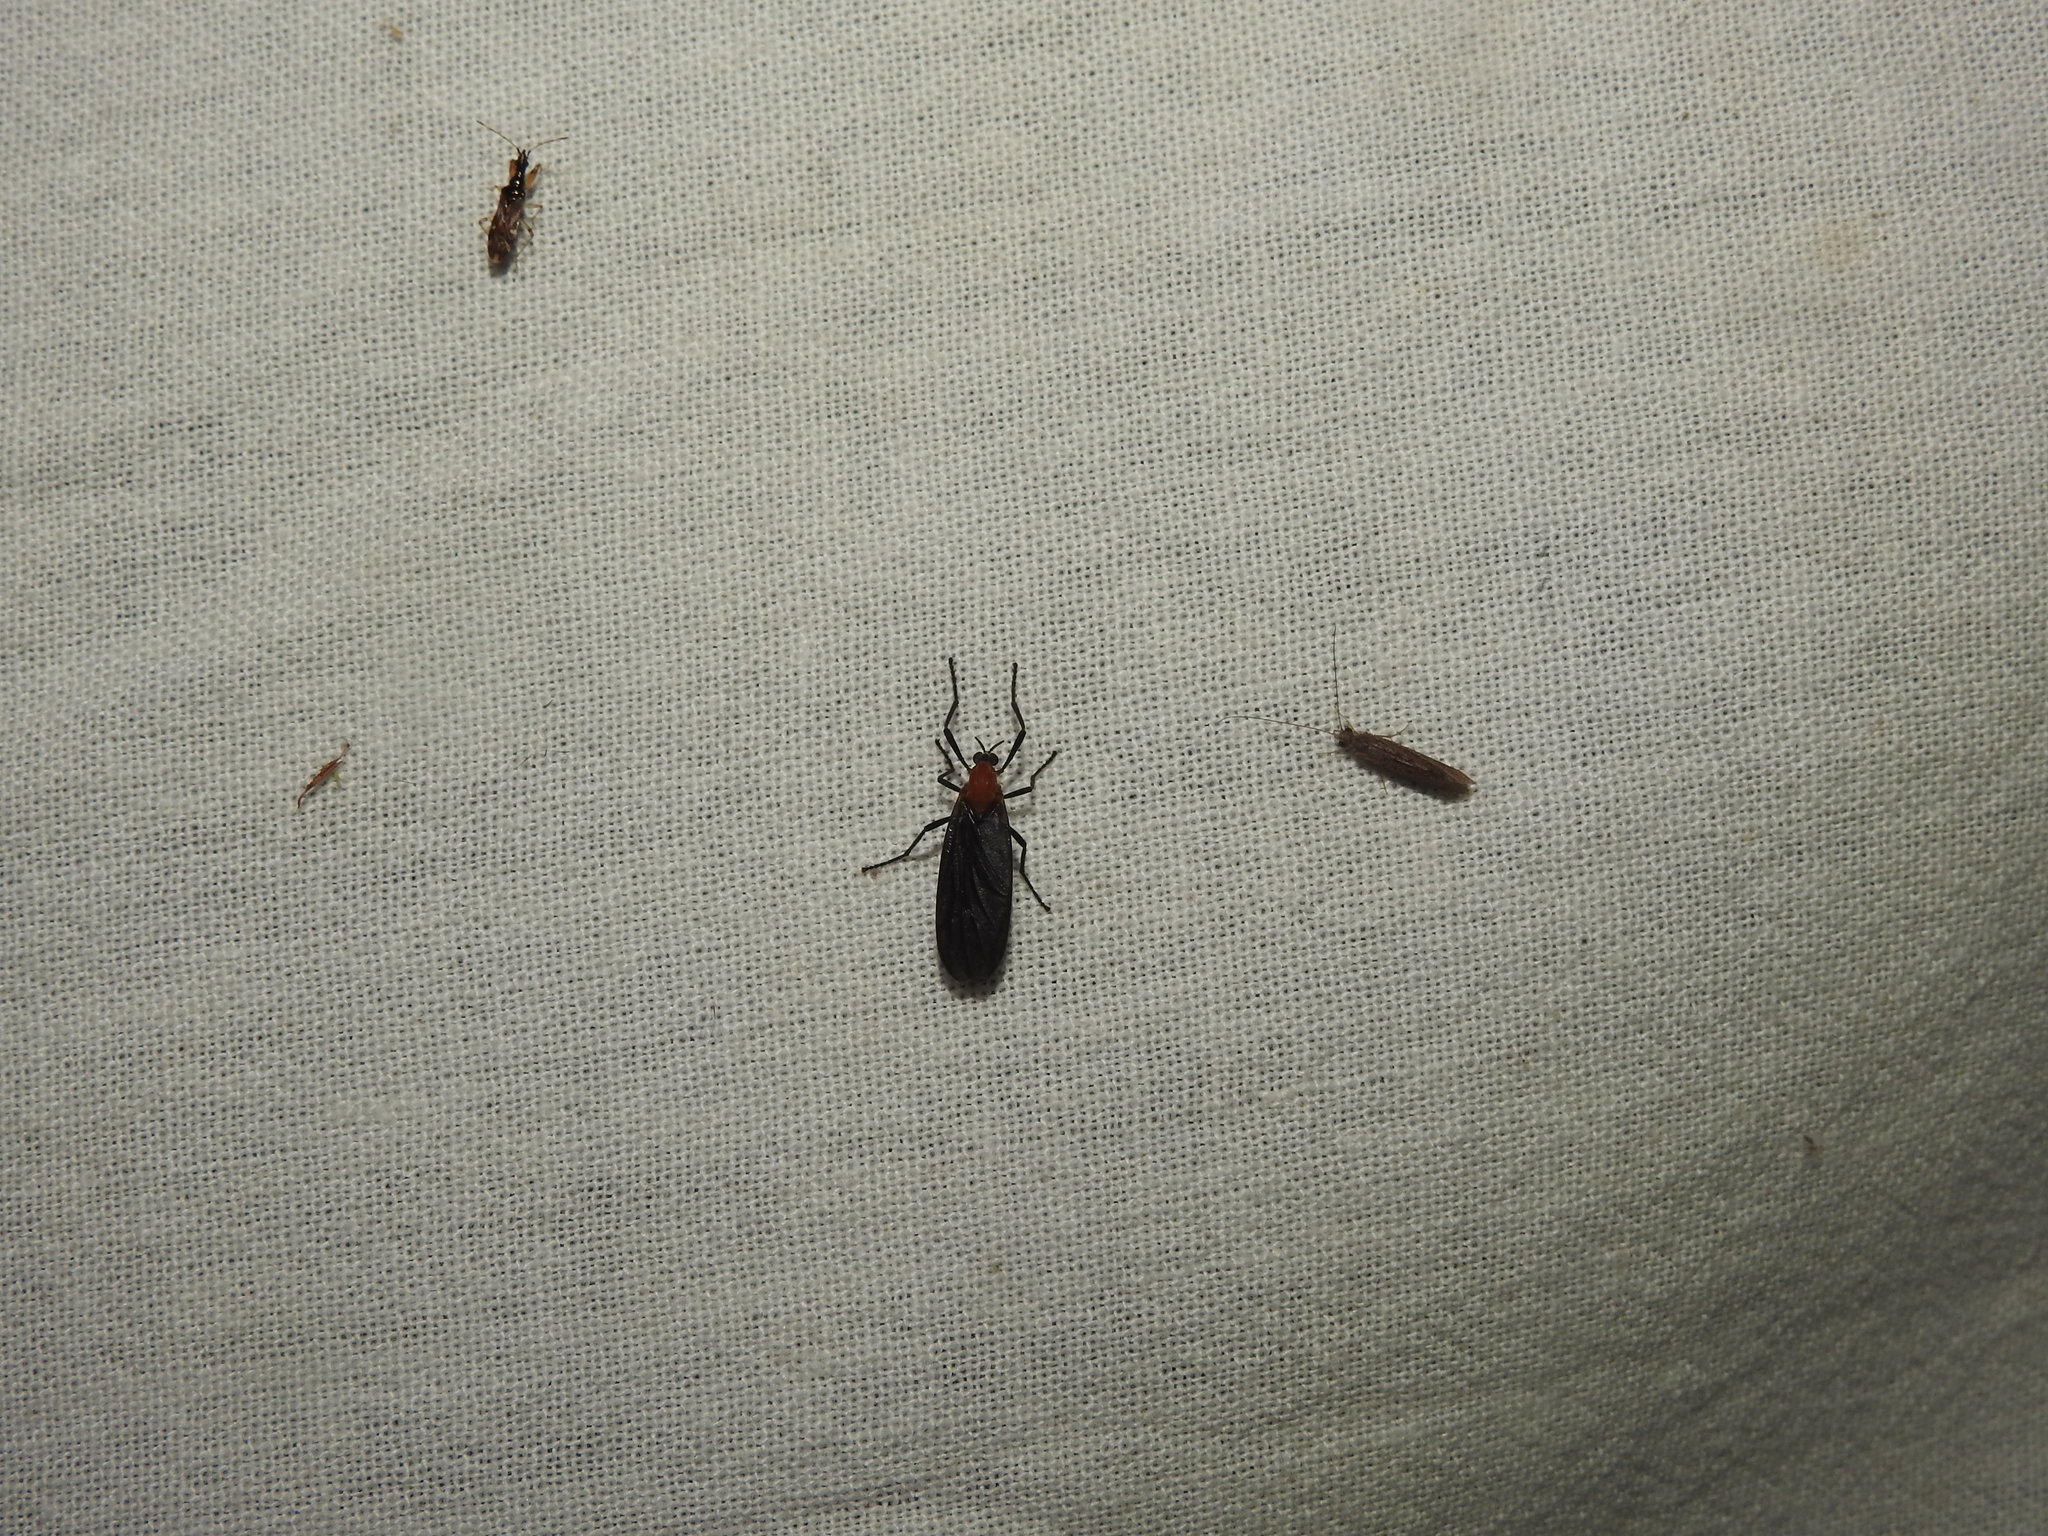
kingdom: Animalia
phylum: Arthropoda
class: Insecta
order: Hemiptera
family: Rhyparochromidae
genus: Altomarus
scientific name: Altomarus greeni
